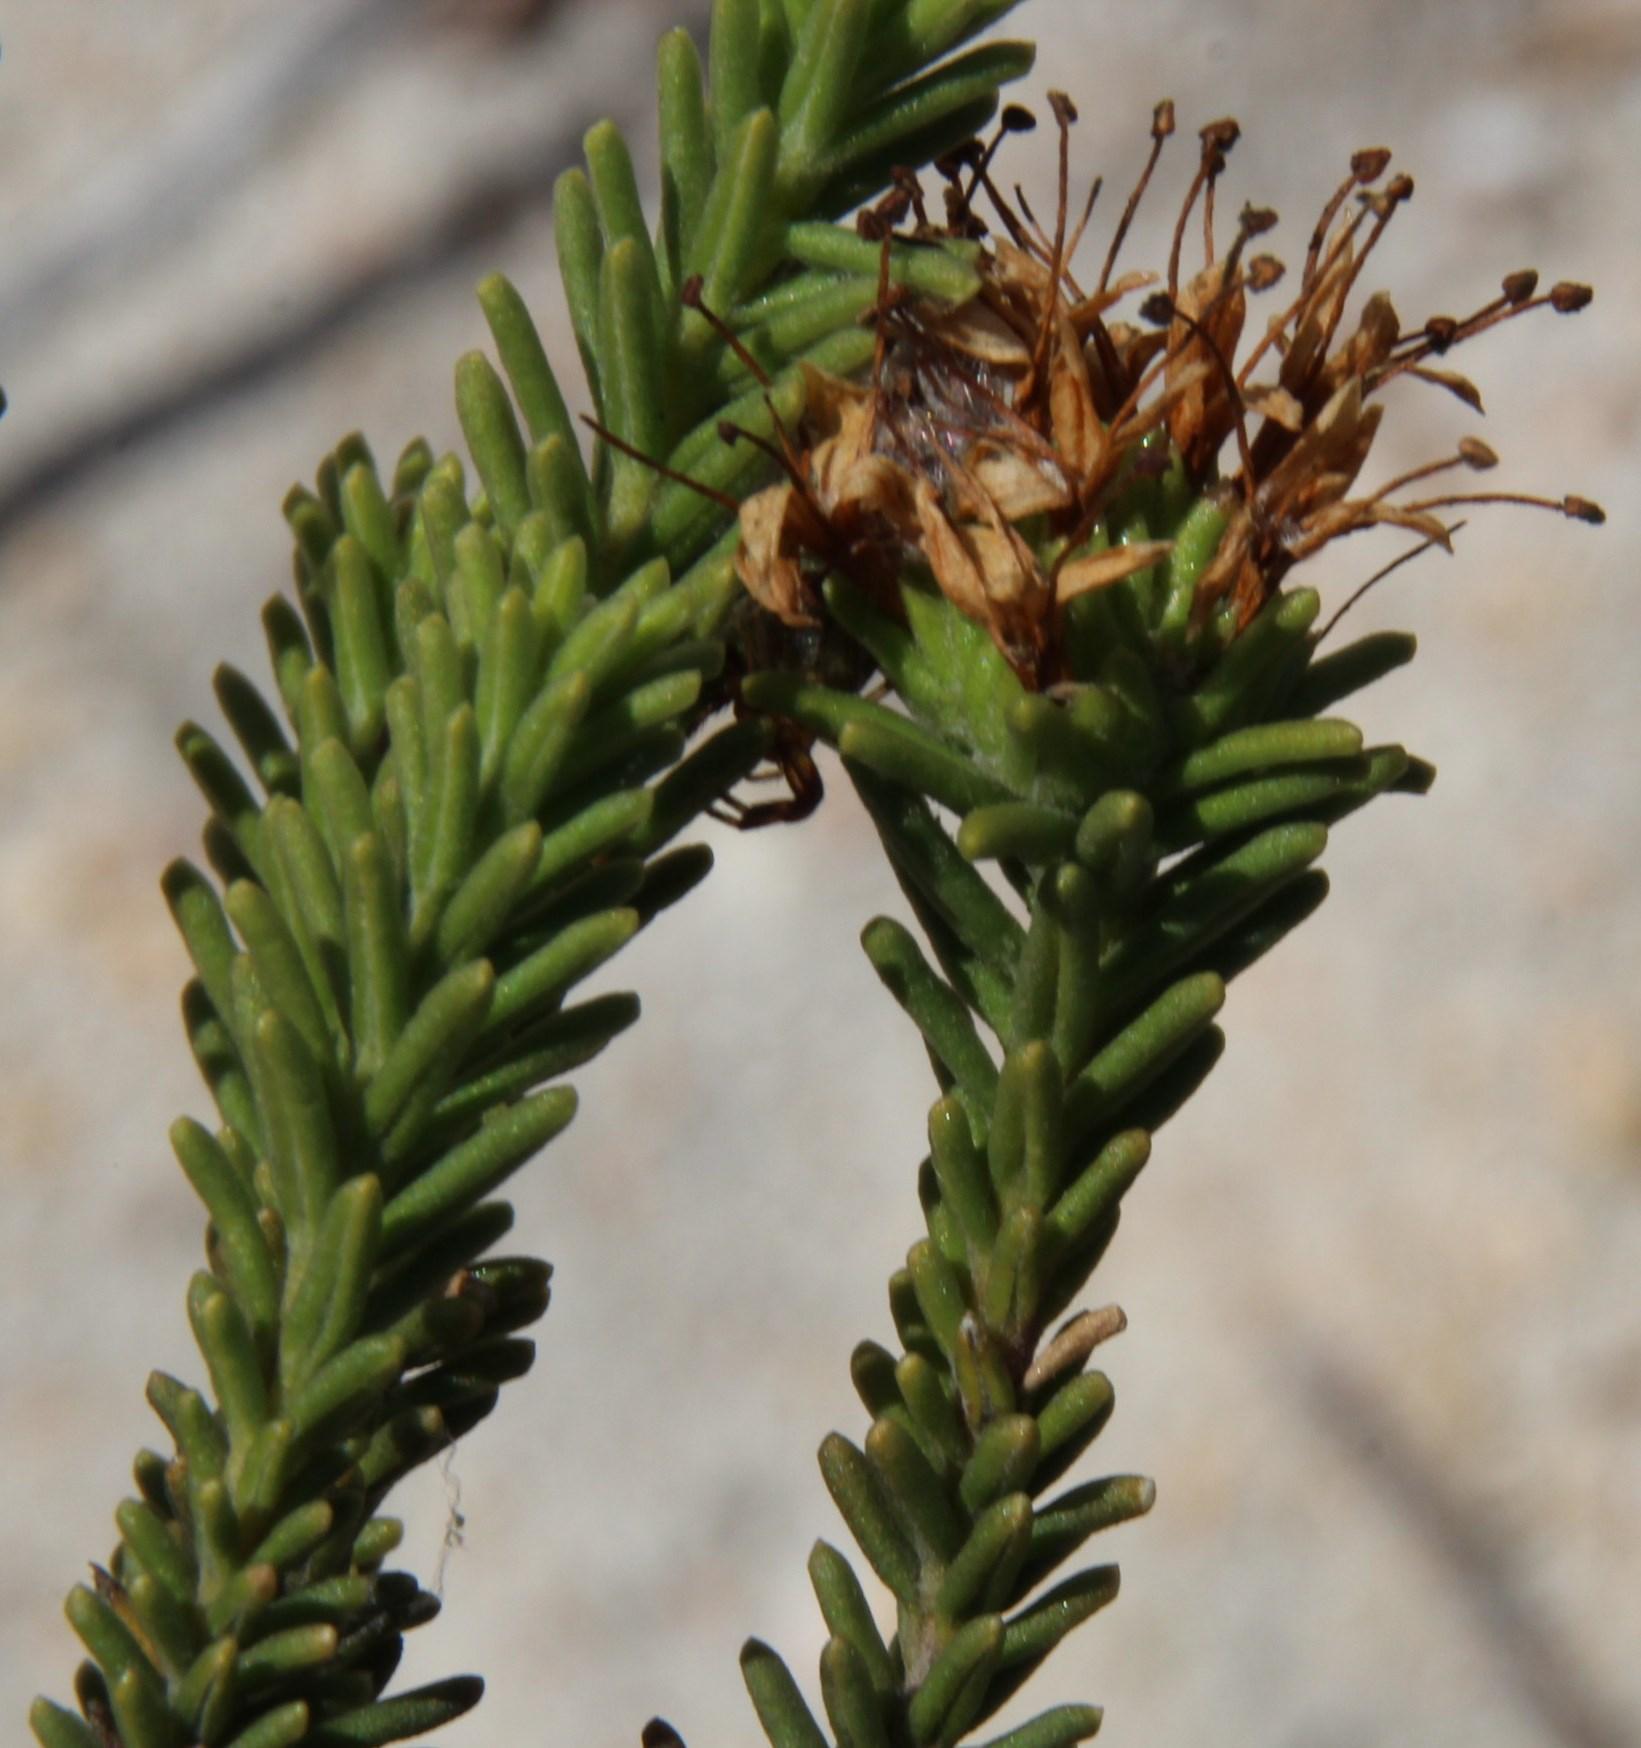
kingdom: Plantae
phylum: Tracheophyta
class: Magnoliopsida
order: Lamiales
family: Stilbaceae
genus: Campylostachys
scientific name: Campylostachys cernua
